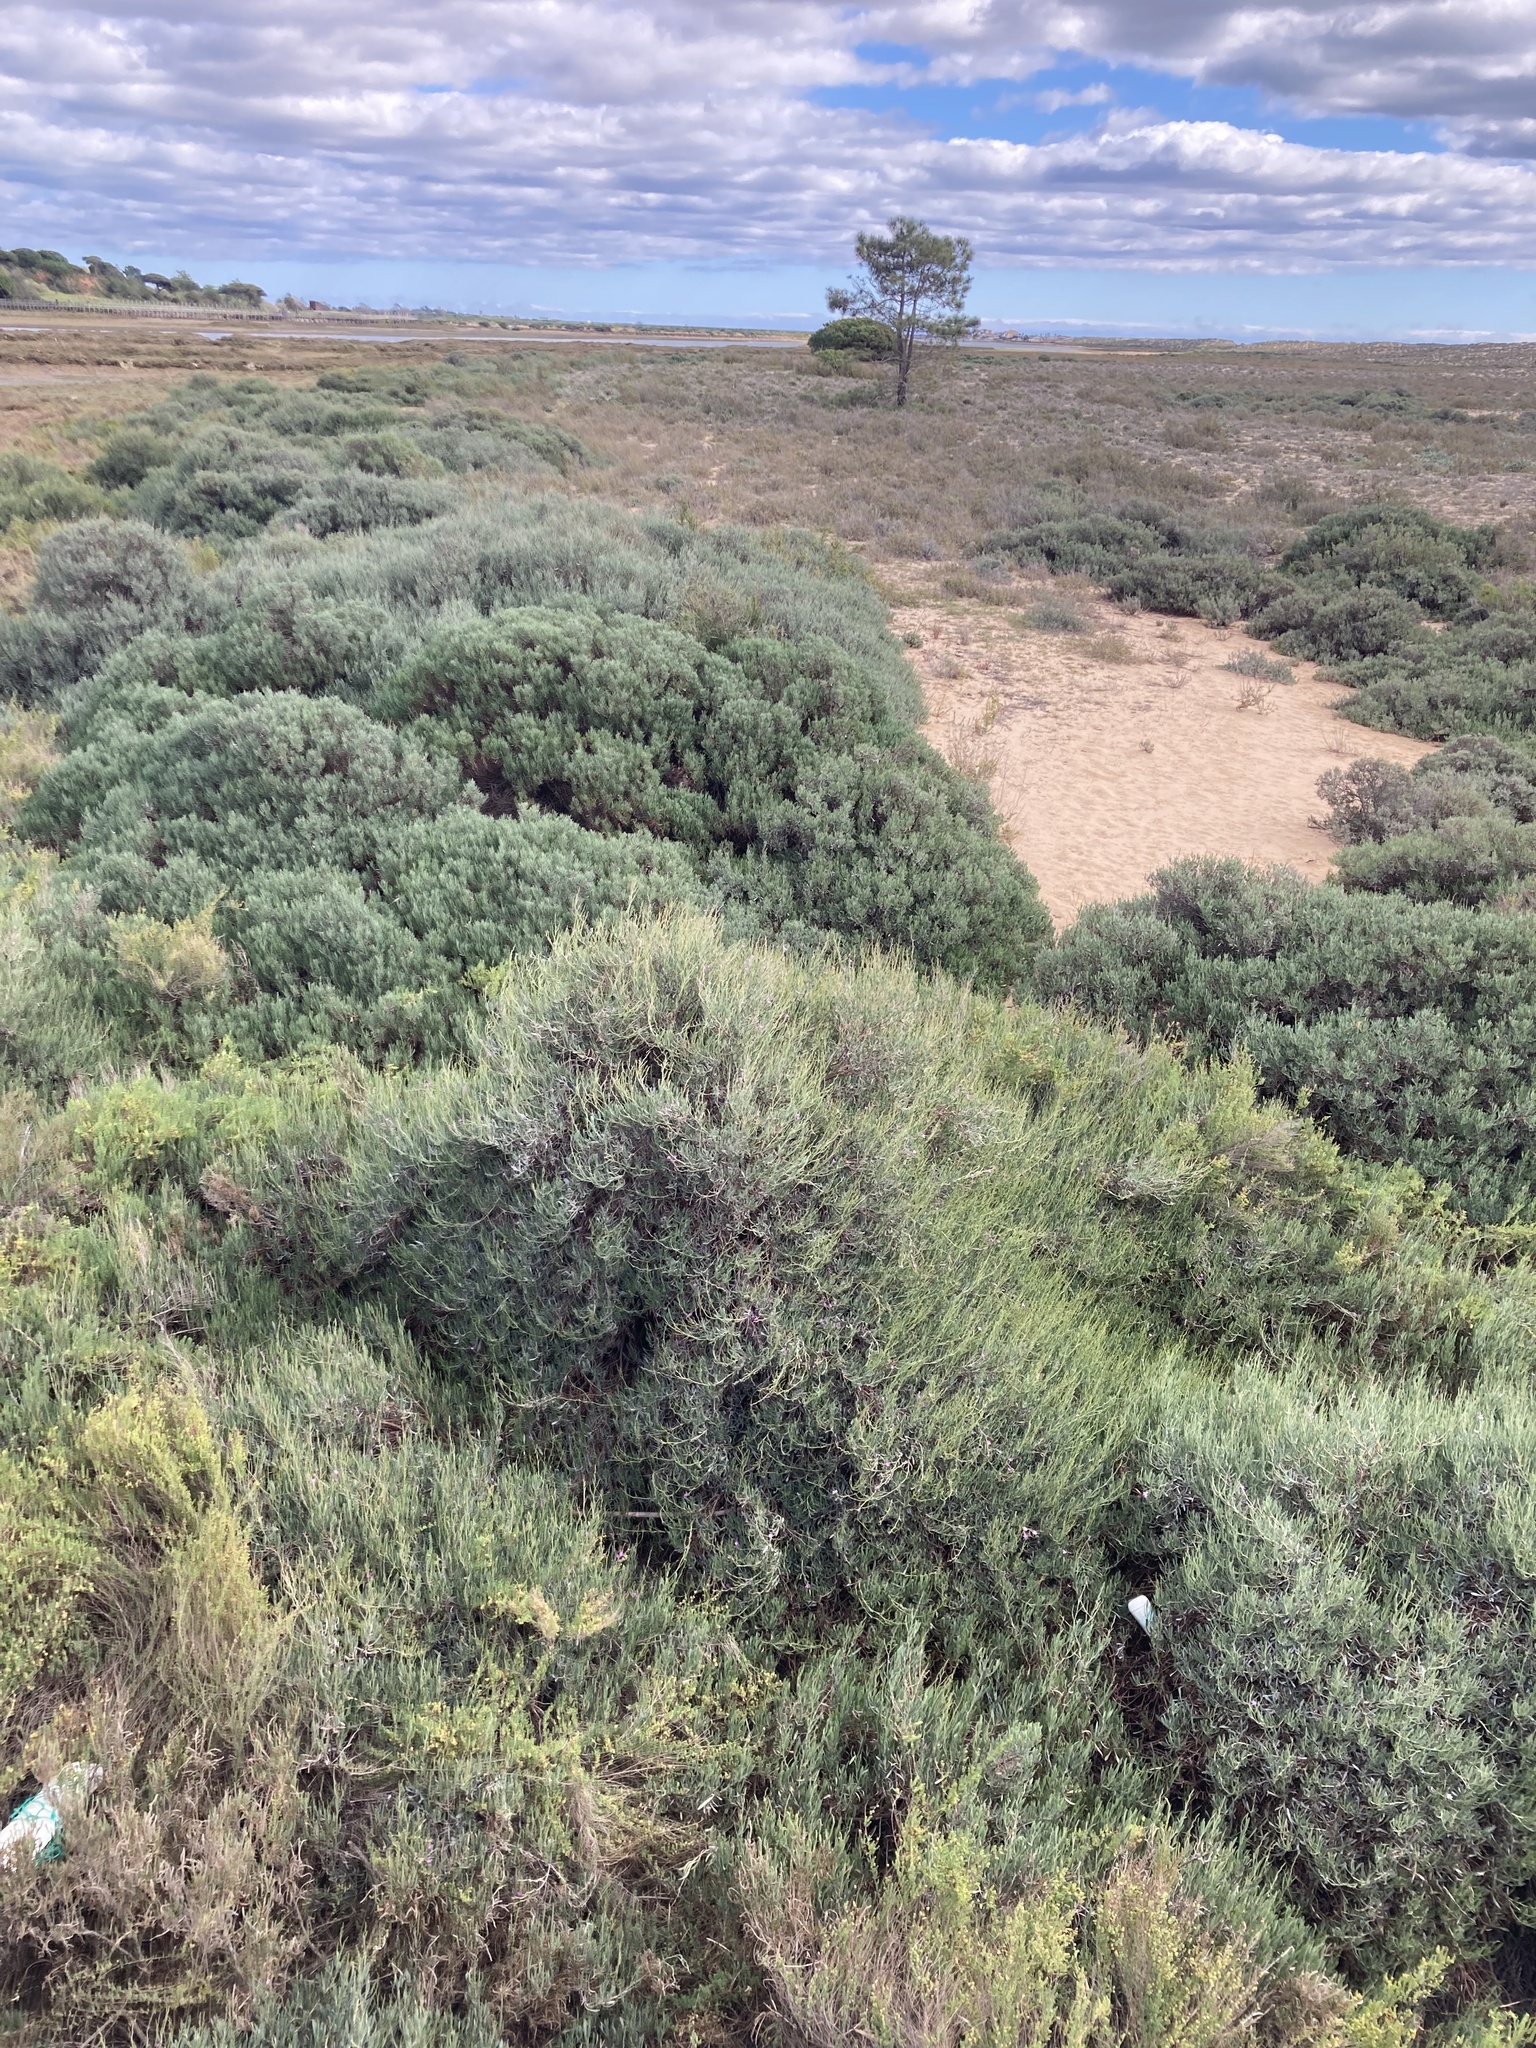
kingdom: Plantae
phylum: Tracheophyta
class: Magnoliopsida
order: Caryophyllales
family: Plumbaginaceae
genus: Limoniastrum
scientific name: Limoniastrum monopetalum
